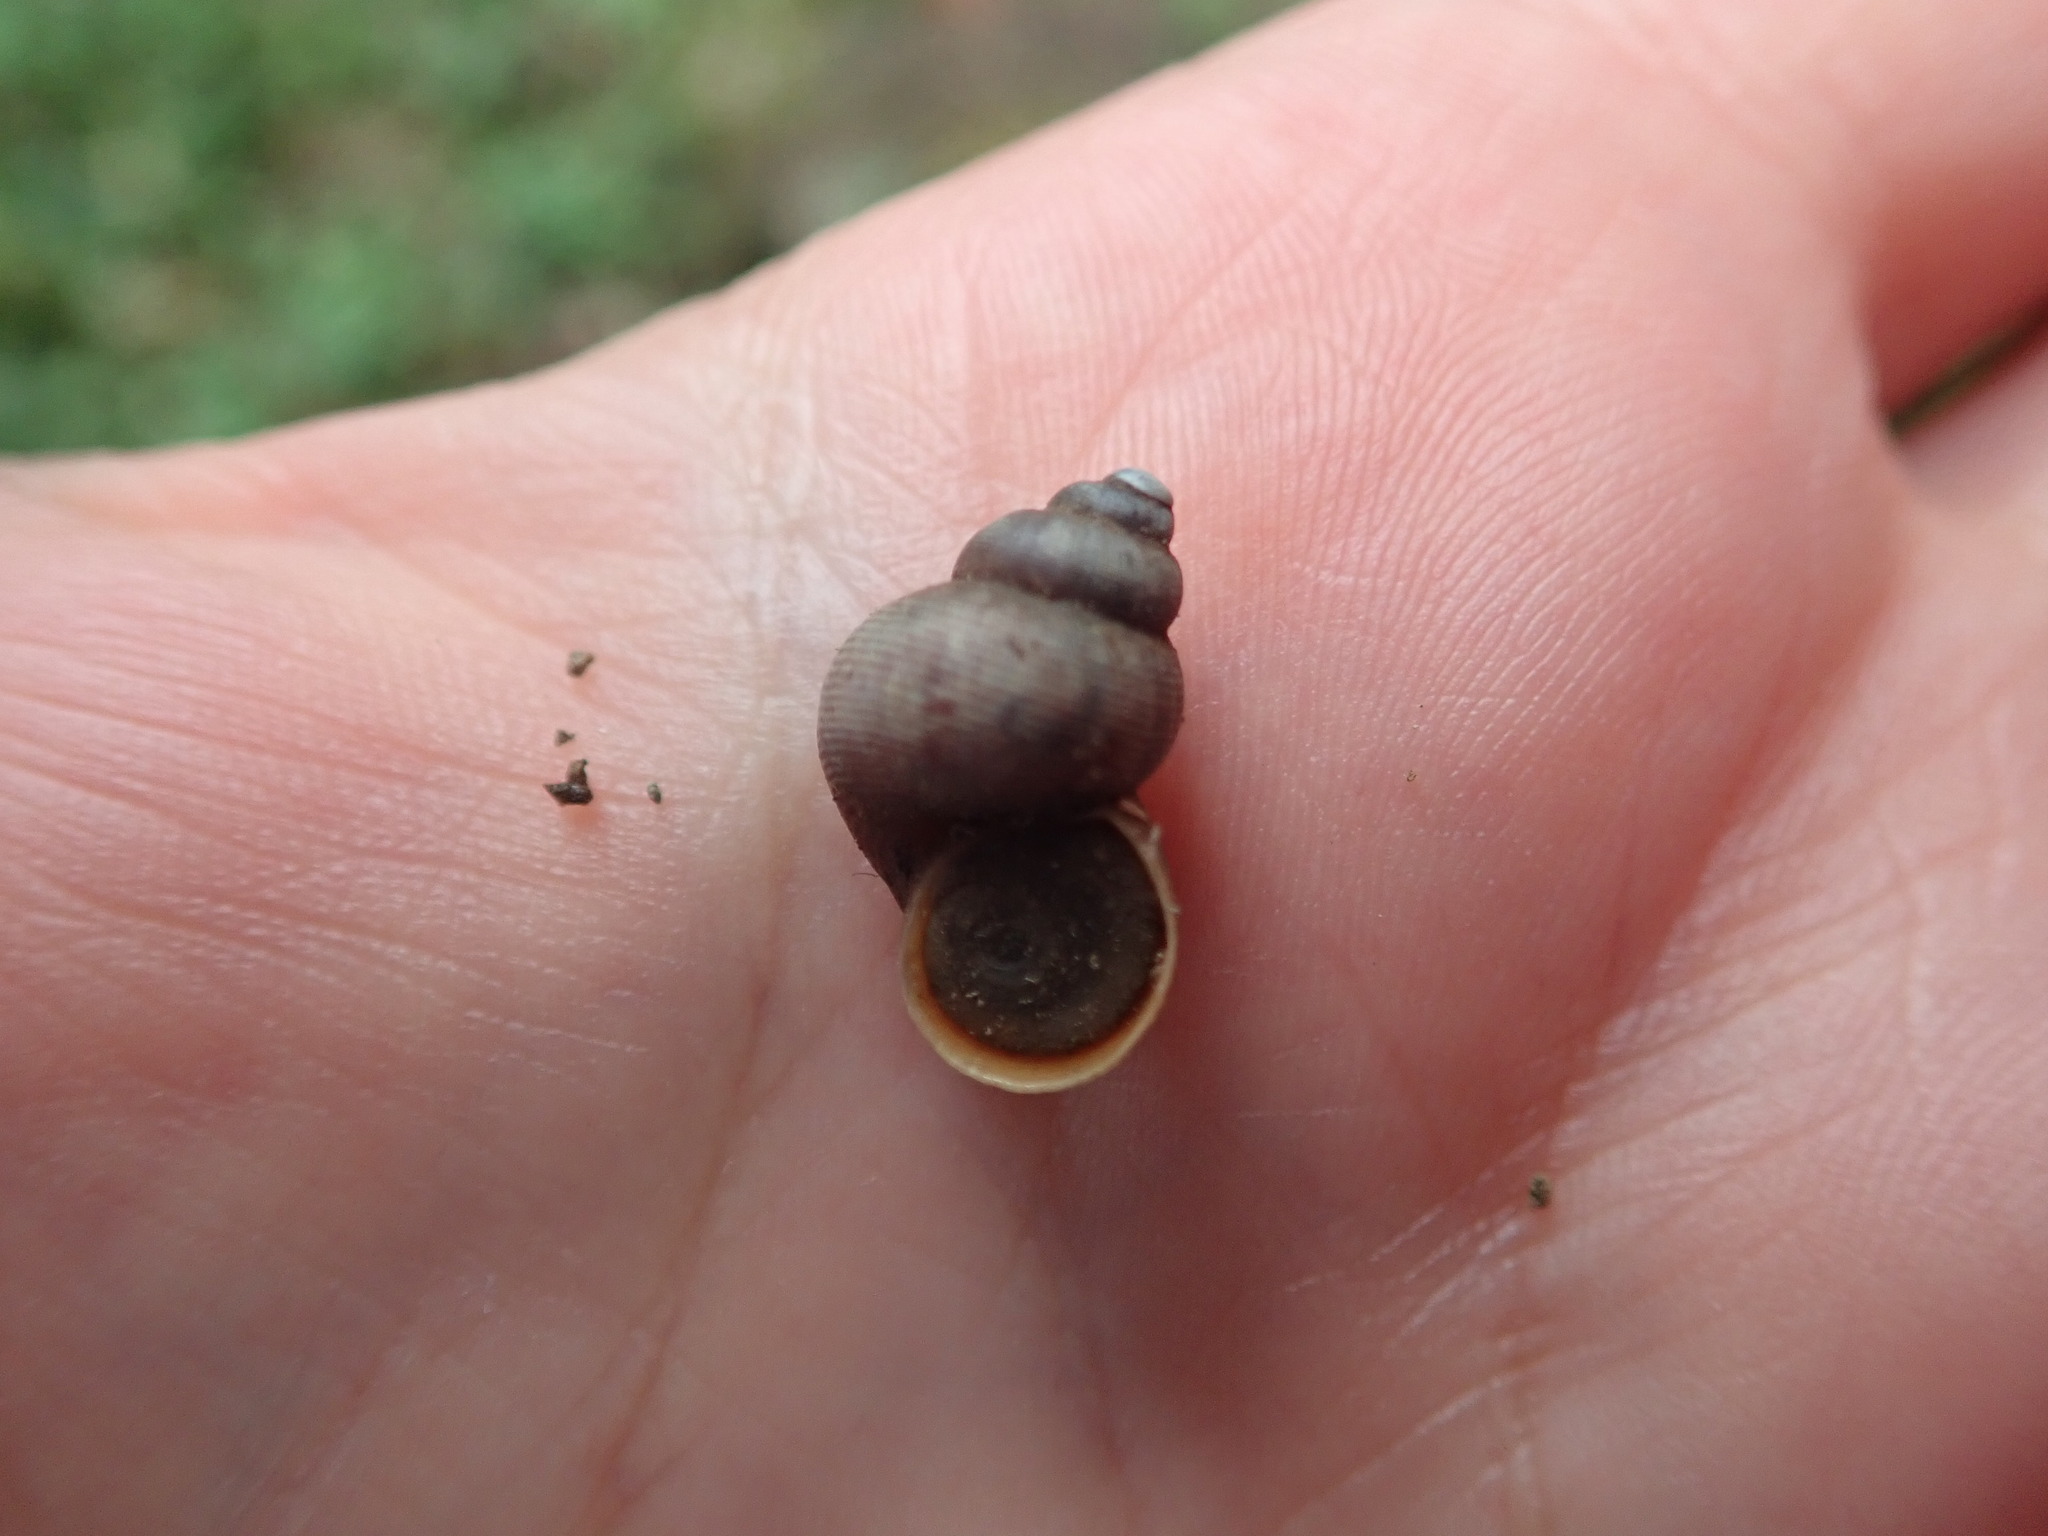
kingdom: Animalia
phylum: Mollusca
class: Gastropoda
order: Littorinimorpha
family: Pomatiidae
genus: Pomatias
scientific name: Pomatias elegans
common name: Red-mouthed snail
